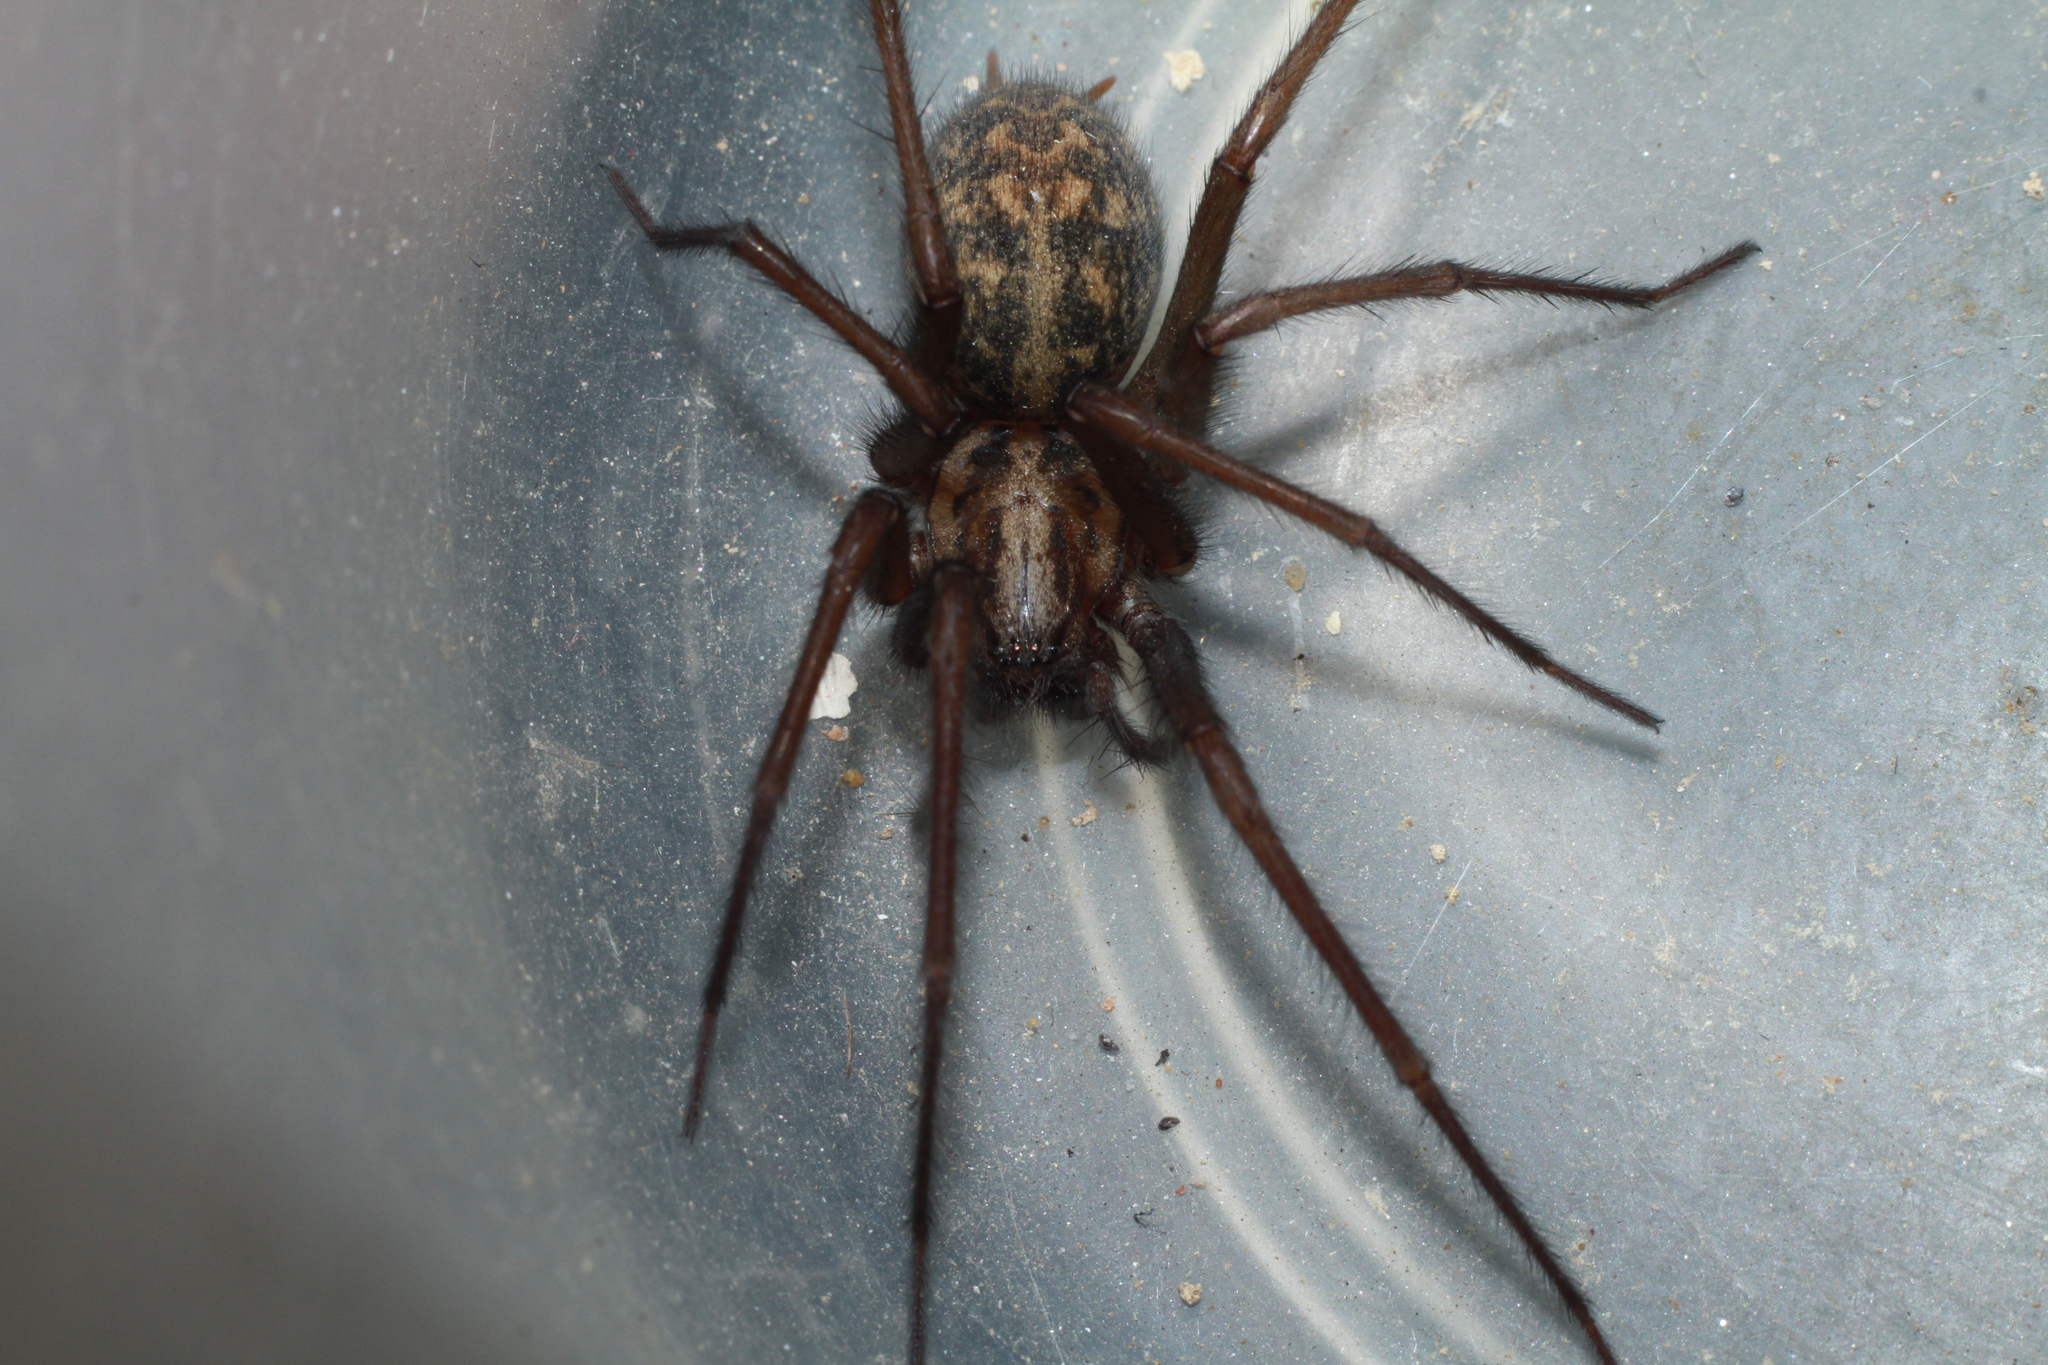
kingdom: Animalia
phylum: Arthropoda
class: Arachnida
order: Araneae
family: Agelenidae
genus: Eratigena
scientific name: Eratigena
